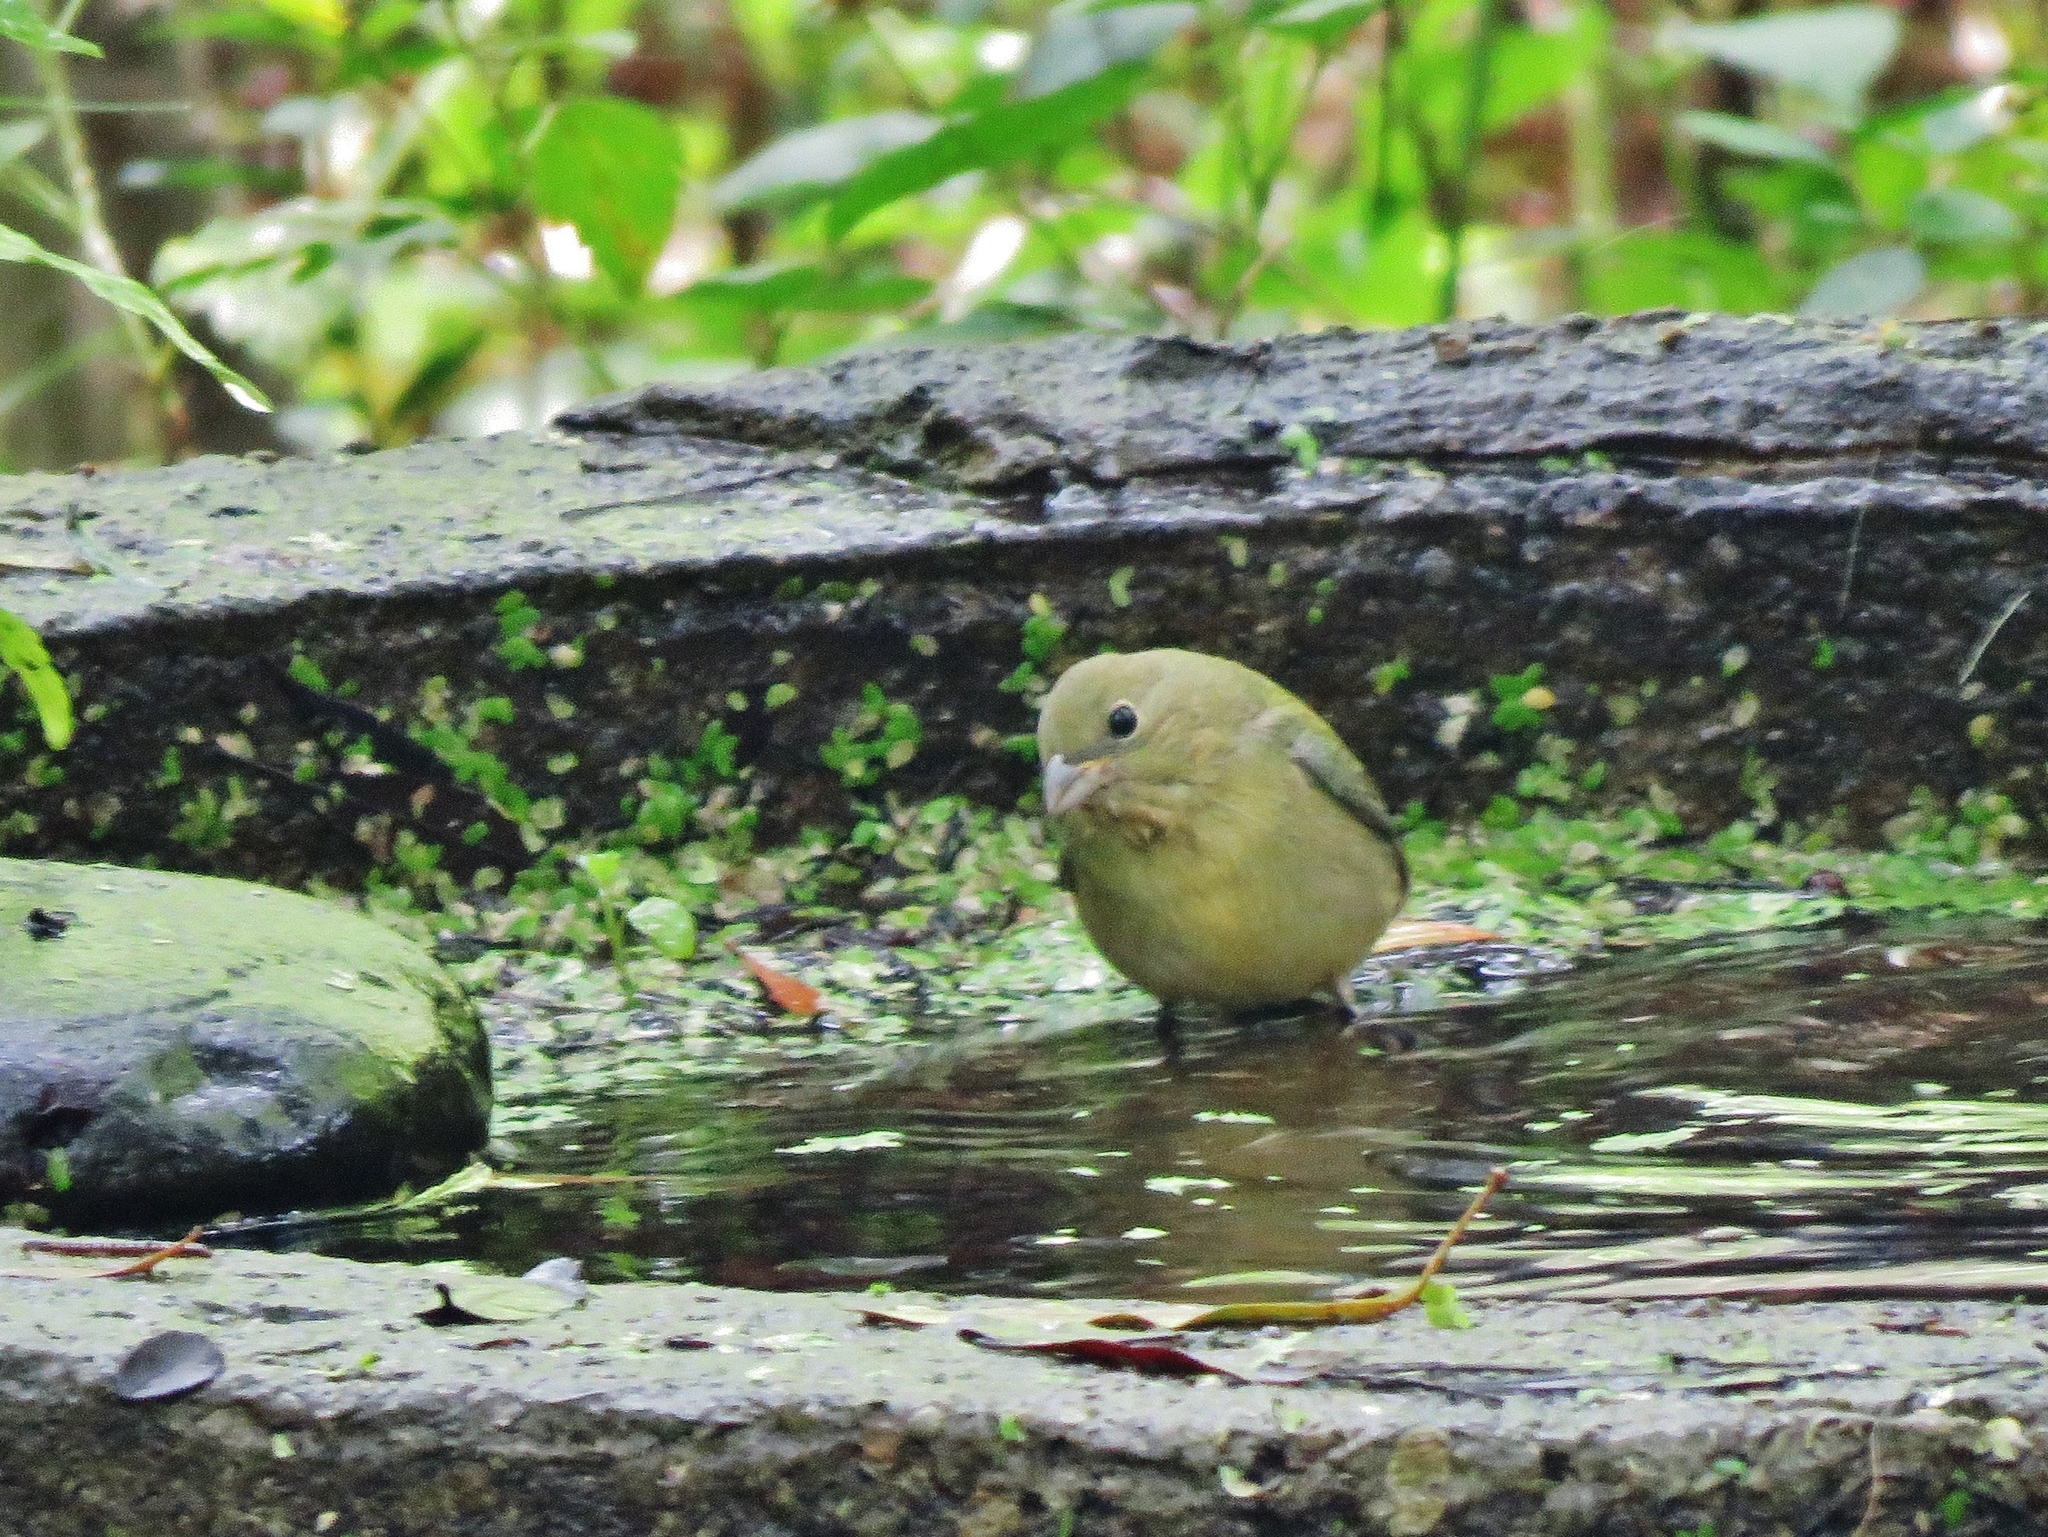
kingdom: Animalia
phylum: Chordata
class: Aves
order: Passeriformes
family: Cardinalidae
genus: Passerina
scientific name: Passerina ciris
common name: Painted bunting
